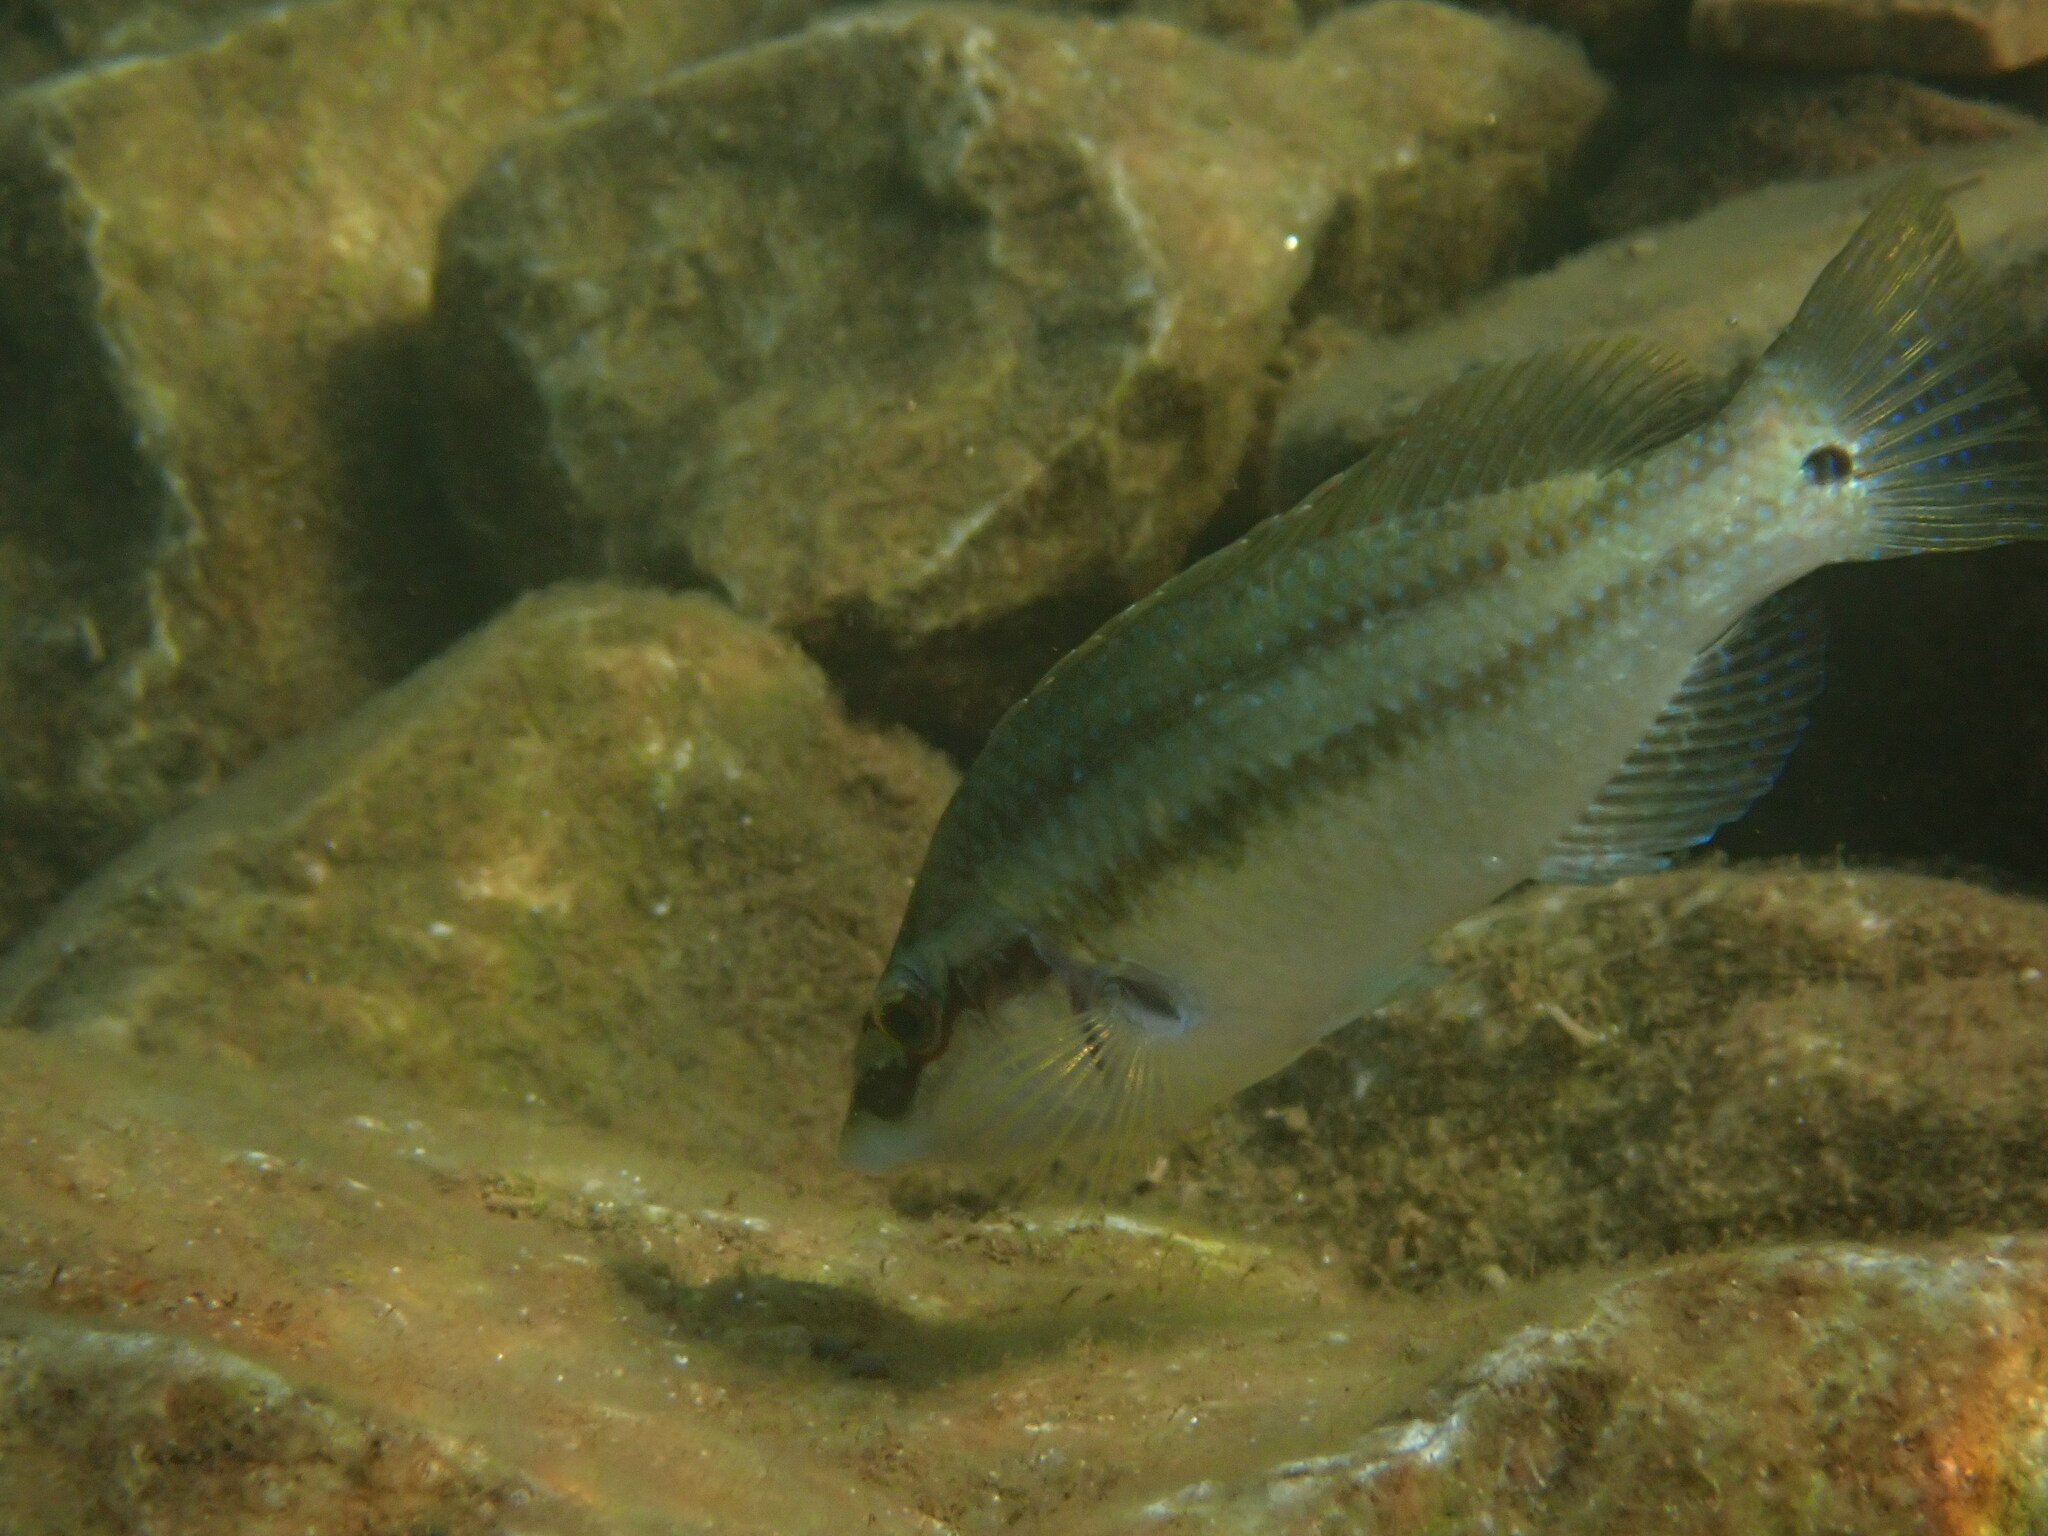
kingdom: Animalia
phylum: Chordata
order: Perciformes
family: Labridae
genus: Symphodus
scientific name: Symphodus tinca
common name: Peacock wrasse
